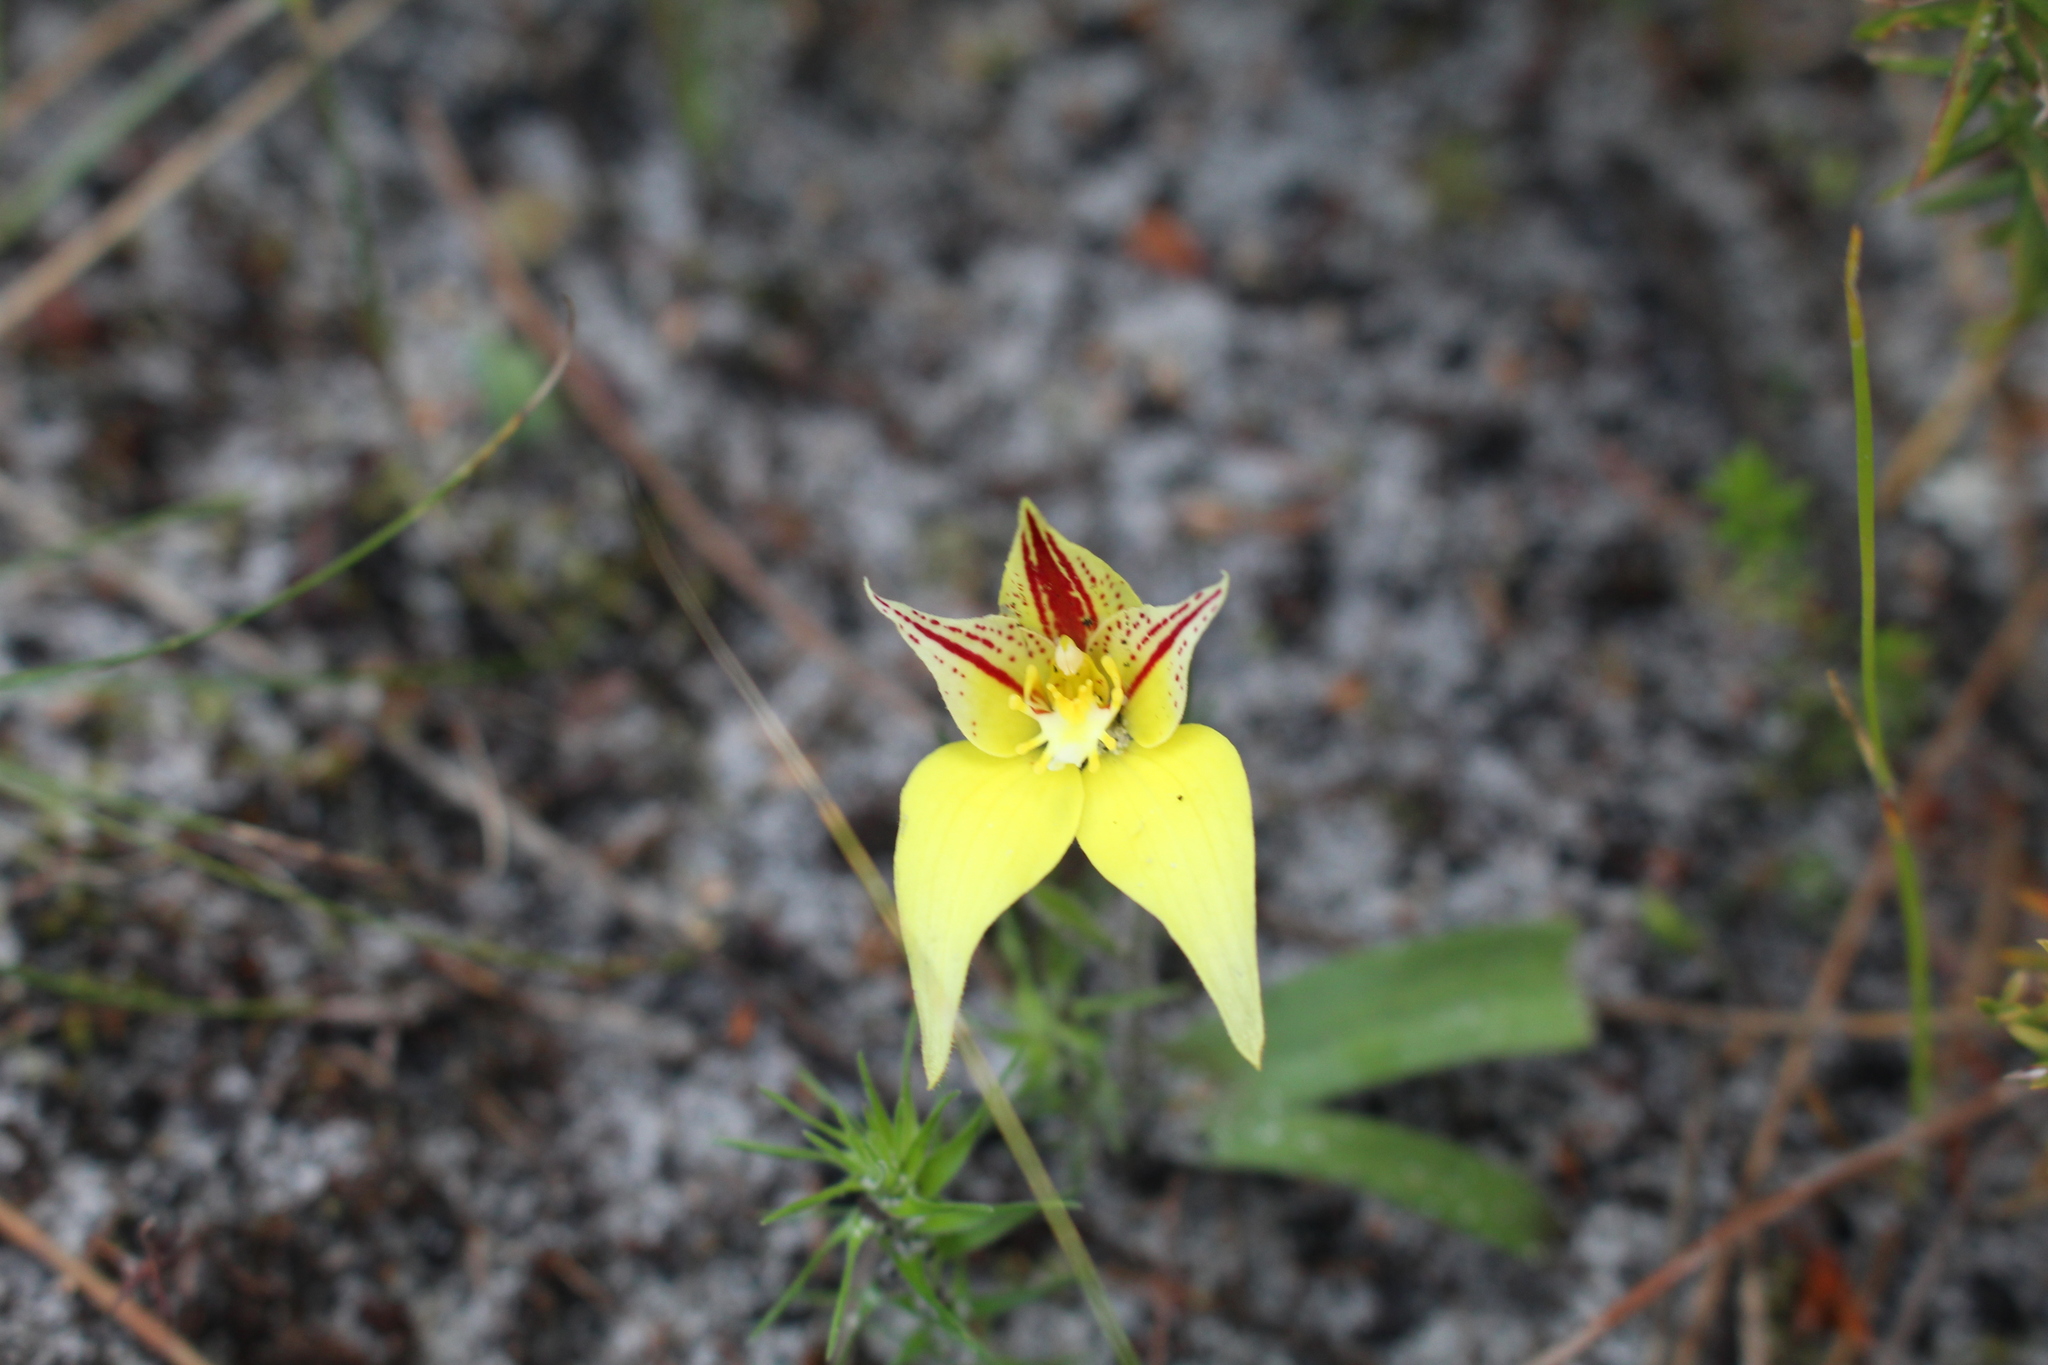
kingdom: Plantae
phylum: Tracheophyta
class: Liliopsida
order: Asparagales
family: Orchidaceae
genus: Caladenia
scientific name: Caladenia flava
